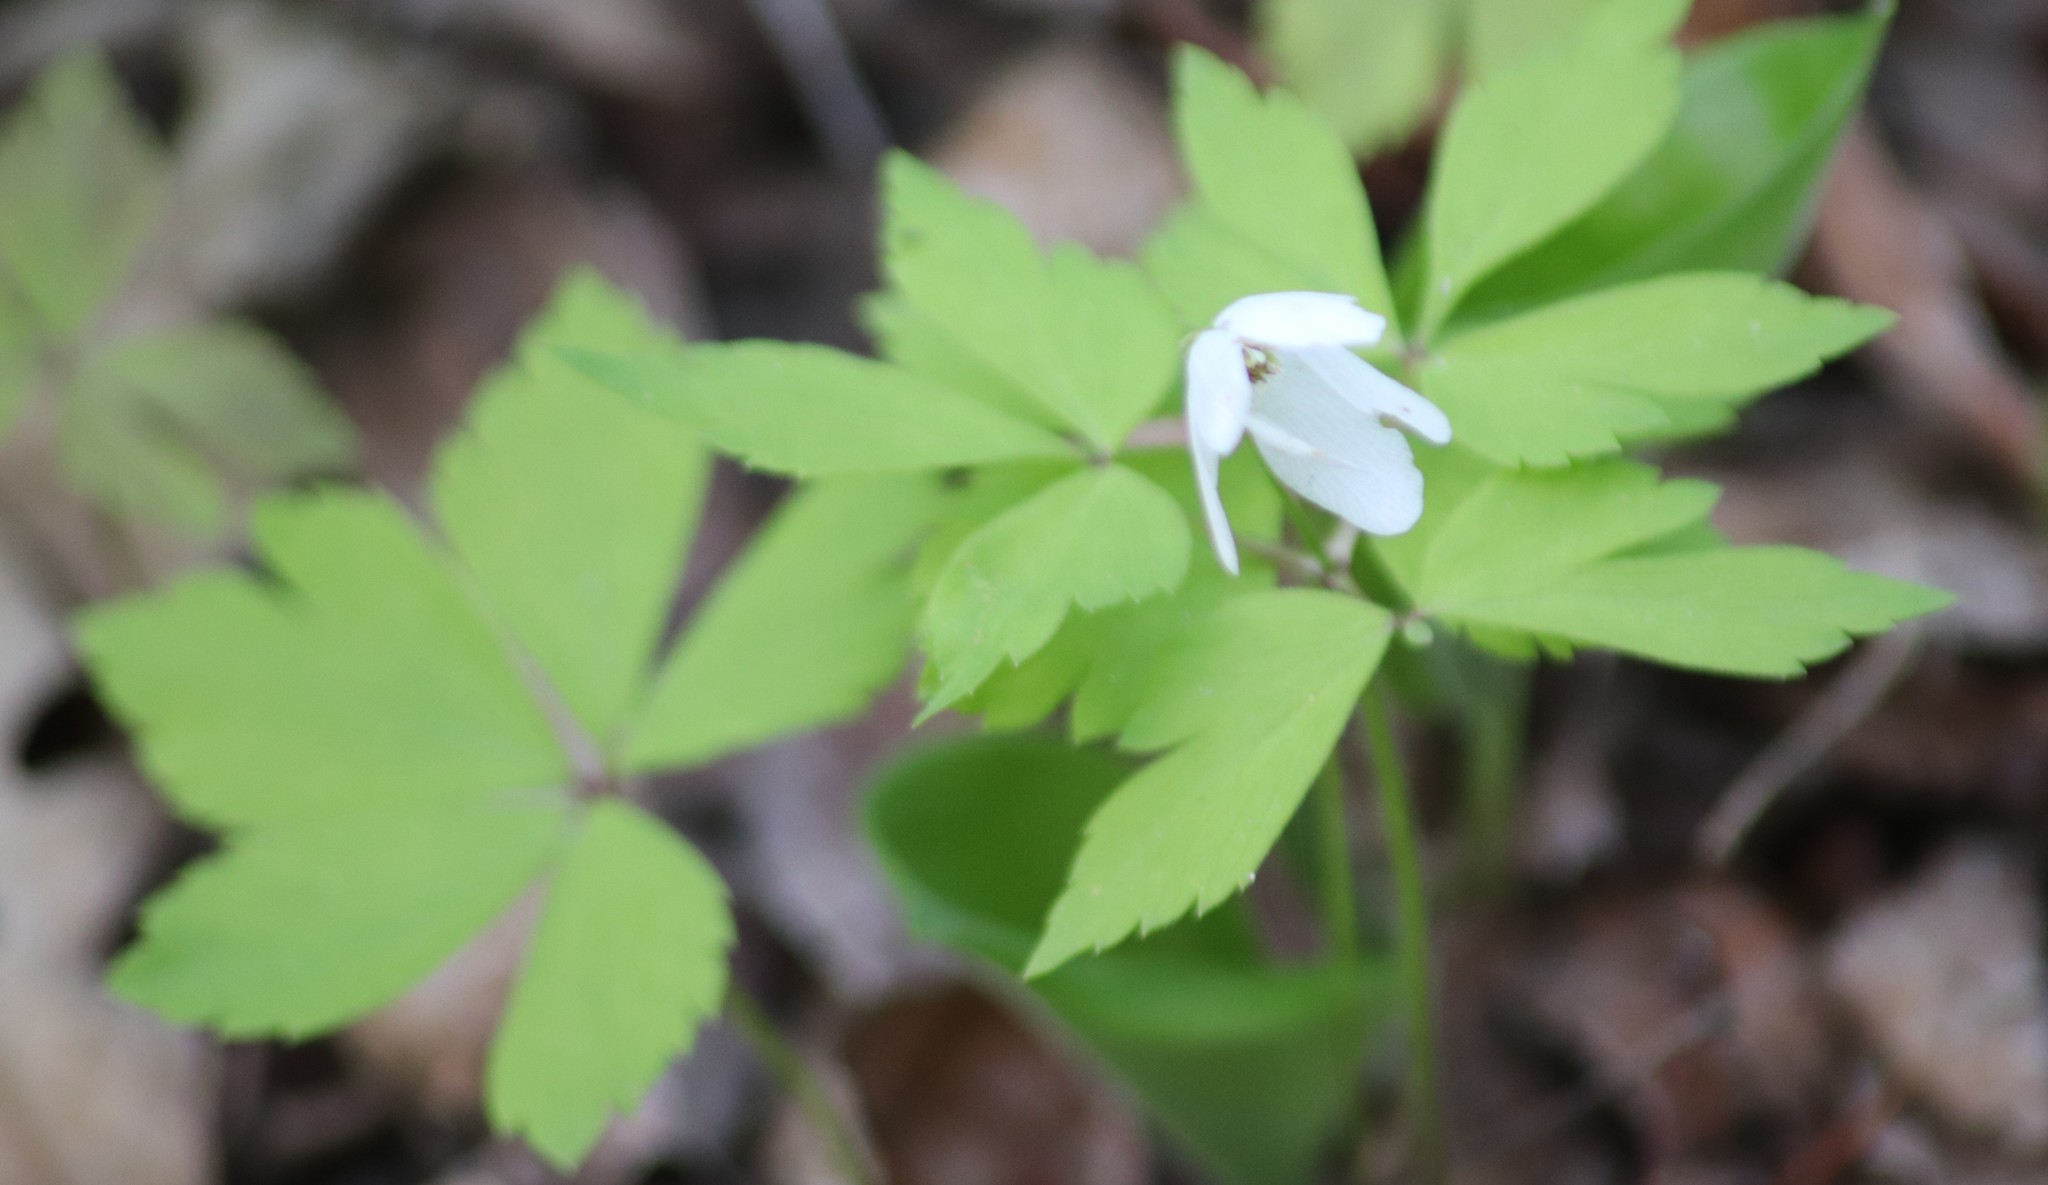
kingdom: Plantae
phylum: Tracheophyta
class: Magnoliopsida
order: Ranunculales
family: Ranunculaceae
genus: Anemone
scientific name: Anemone quinquefolia
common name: Wood anemone
